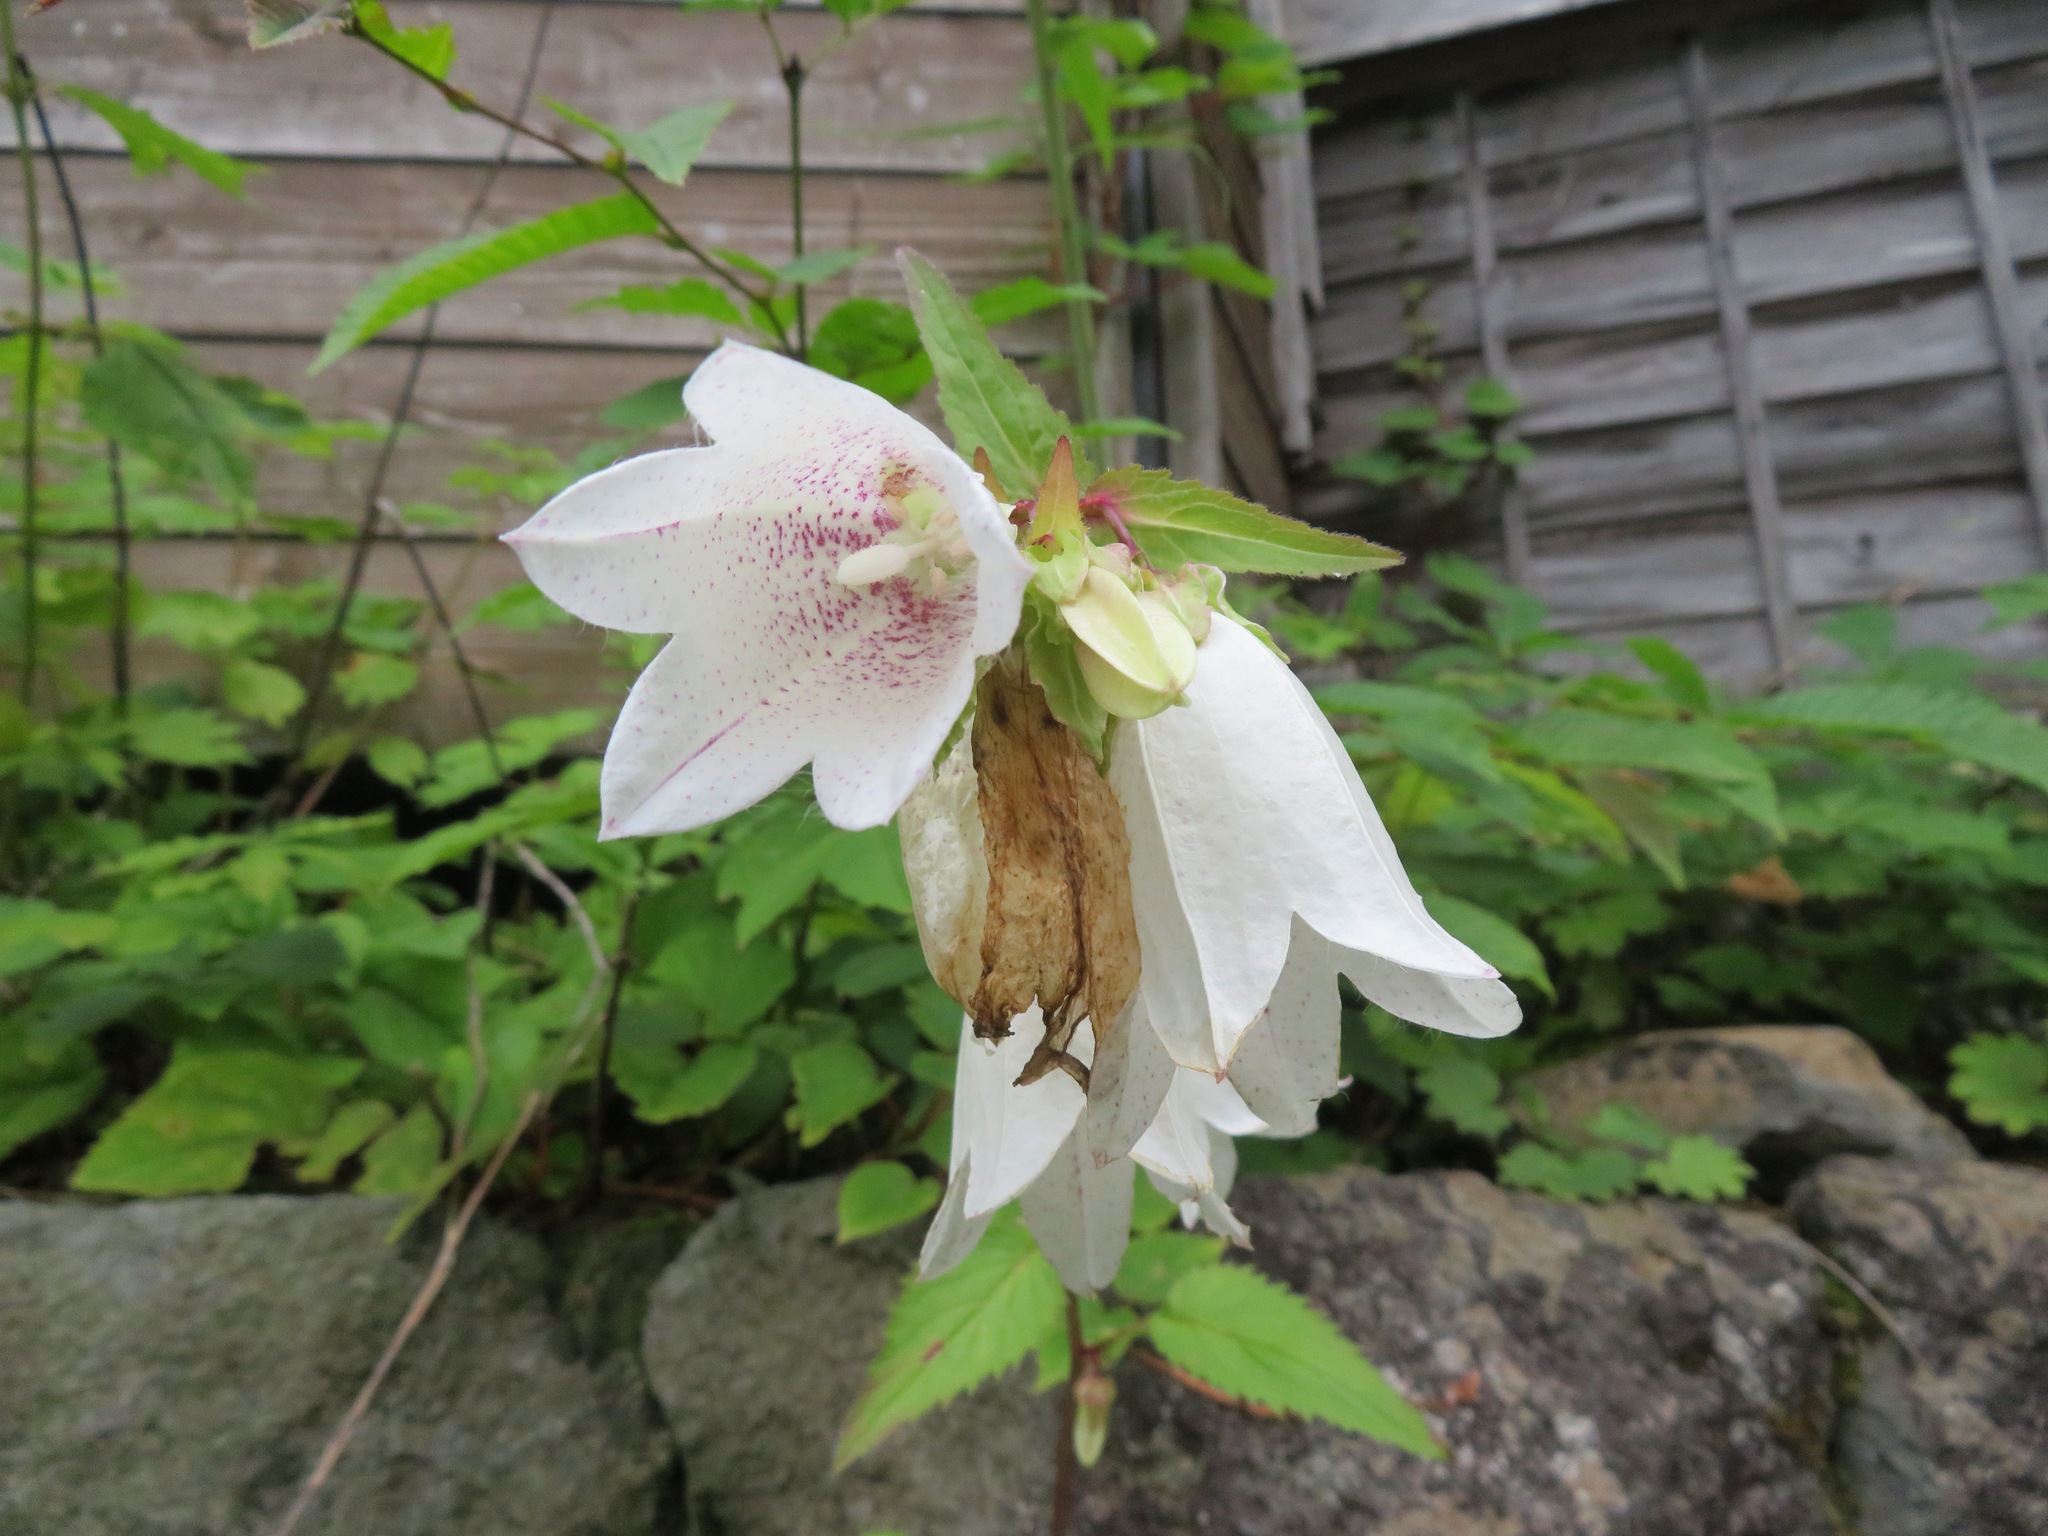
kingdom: Plantae
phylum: Tracheophyta
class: Magnoliopsida
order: Asterales
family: Campanulaceae
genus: Campanula
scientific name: Campanula punctata
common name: Spotted bellflower
